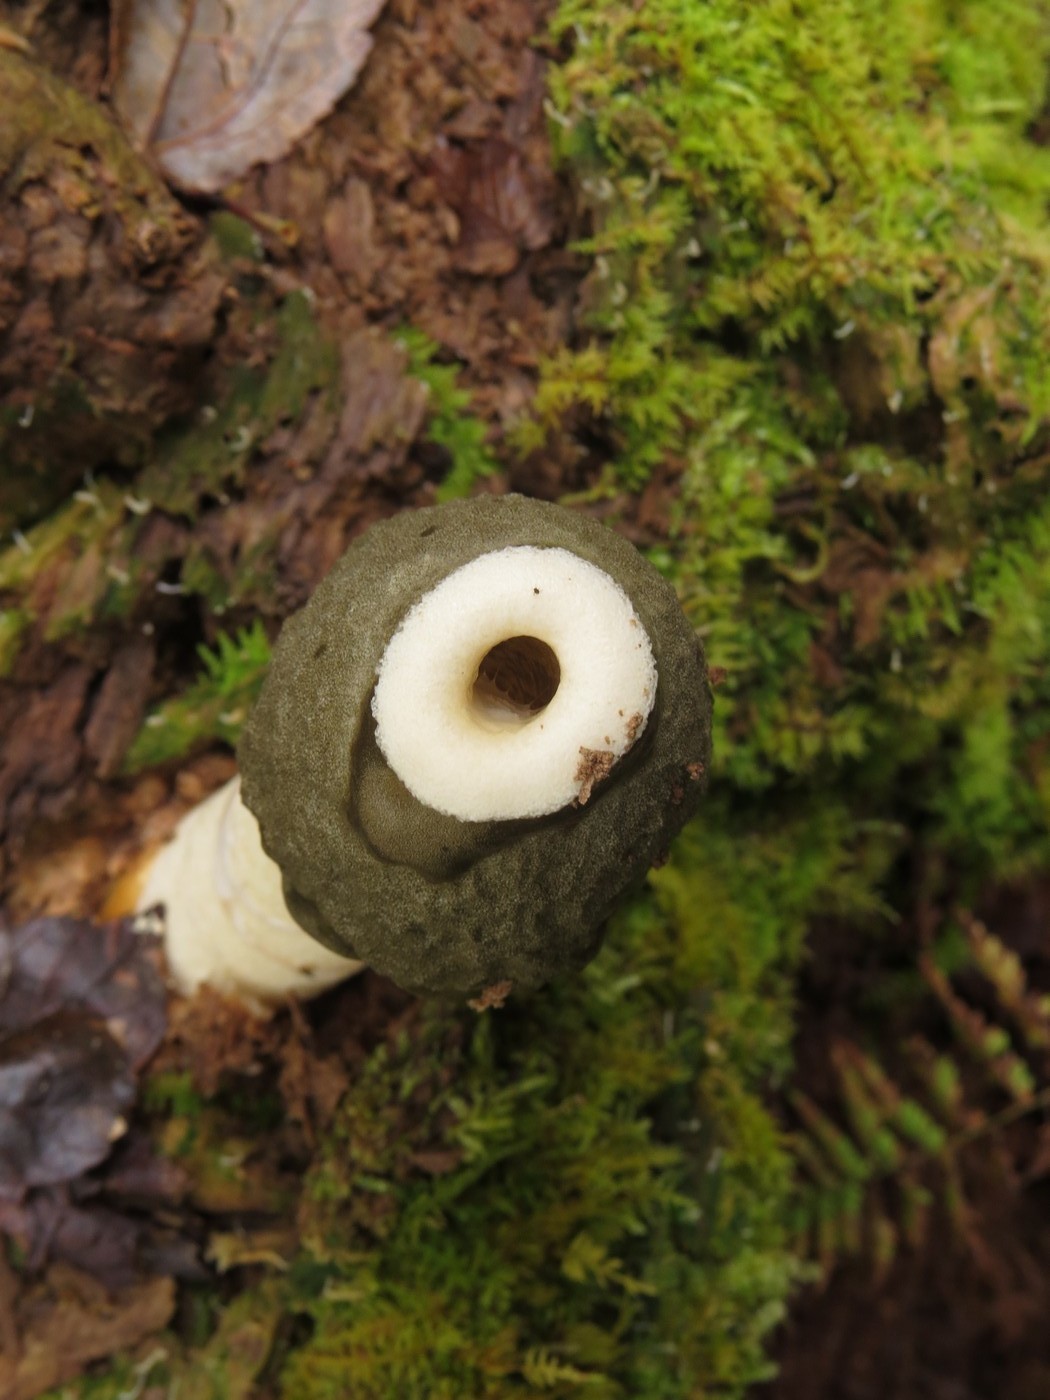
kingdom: Fungi
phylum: Basidiomycota
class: Agaricomycetes
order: Phallales
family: Phallaceae
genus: Phallus
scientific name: Phallus ravenelii
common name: Ravenel's stinkhorn
